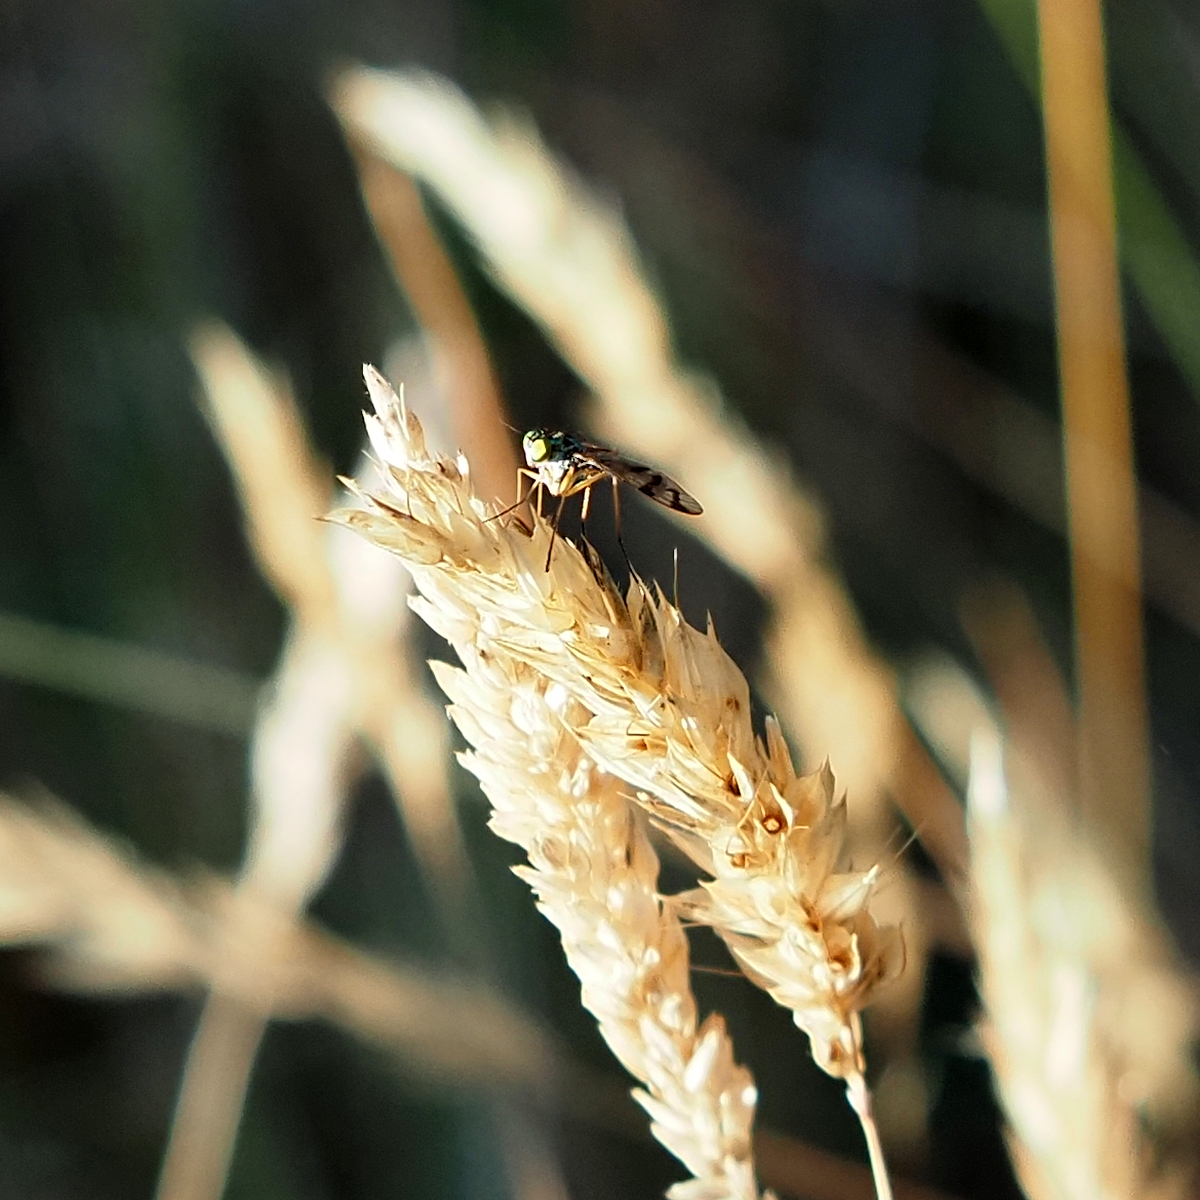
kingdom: Animalia
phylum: Arthropoda
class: Insecta
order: Diptera
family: Dolichopodidae
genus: Heteropsilopus
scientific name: Heteropsilopus ingenuum
